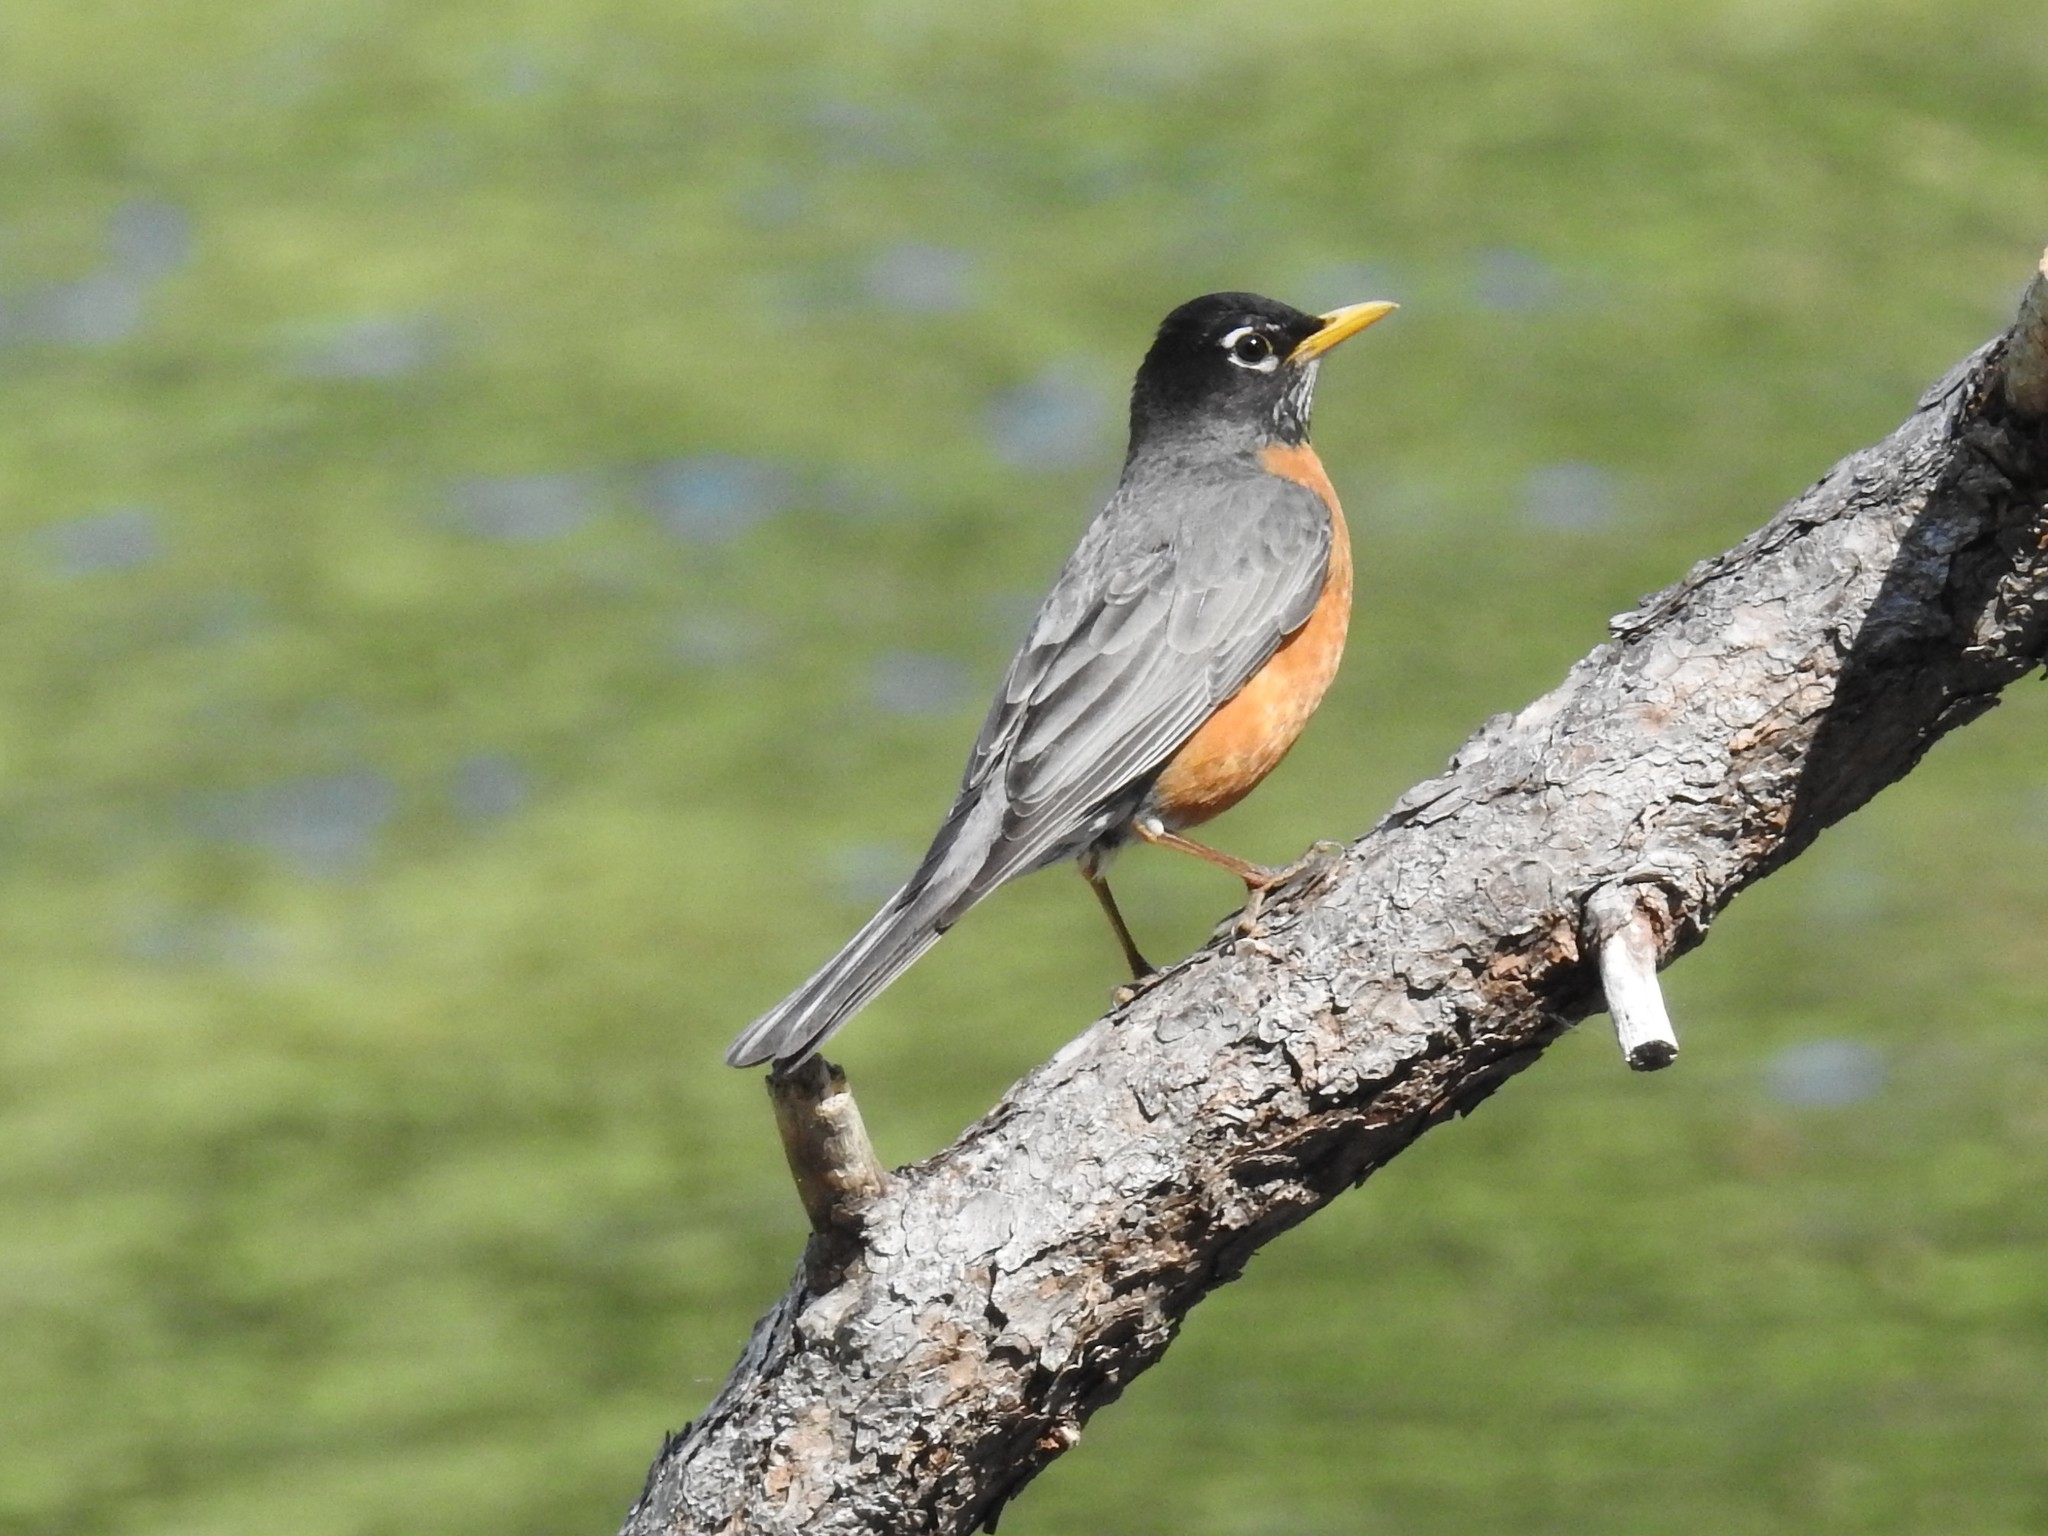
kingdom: Animalia
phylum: Chordata
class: Aves
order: Passeriformes
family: Turdidae
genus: Turdus
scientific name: Turdus migratorius
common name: American robin
